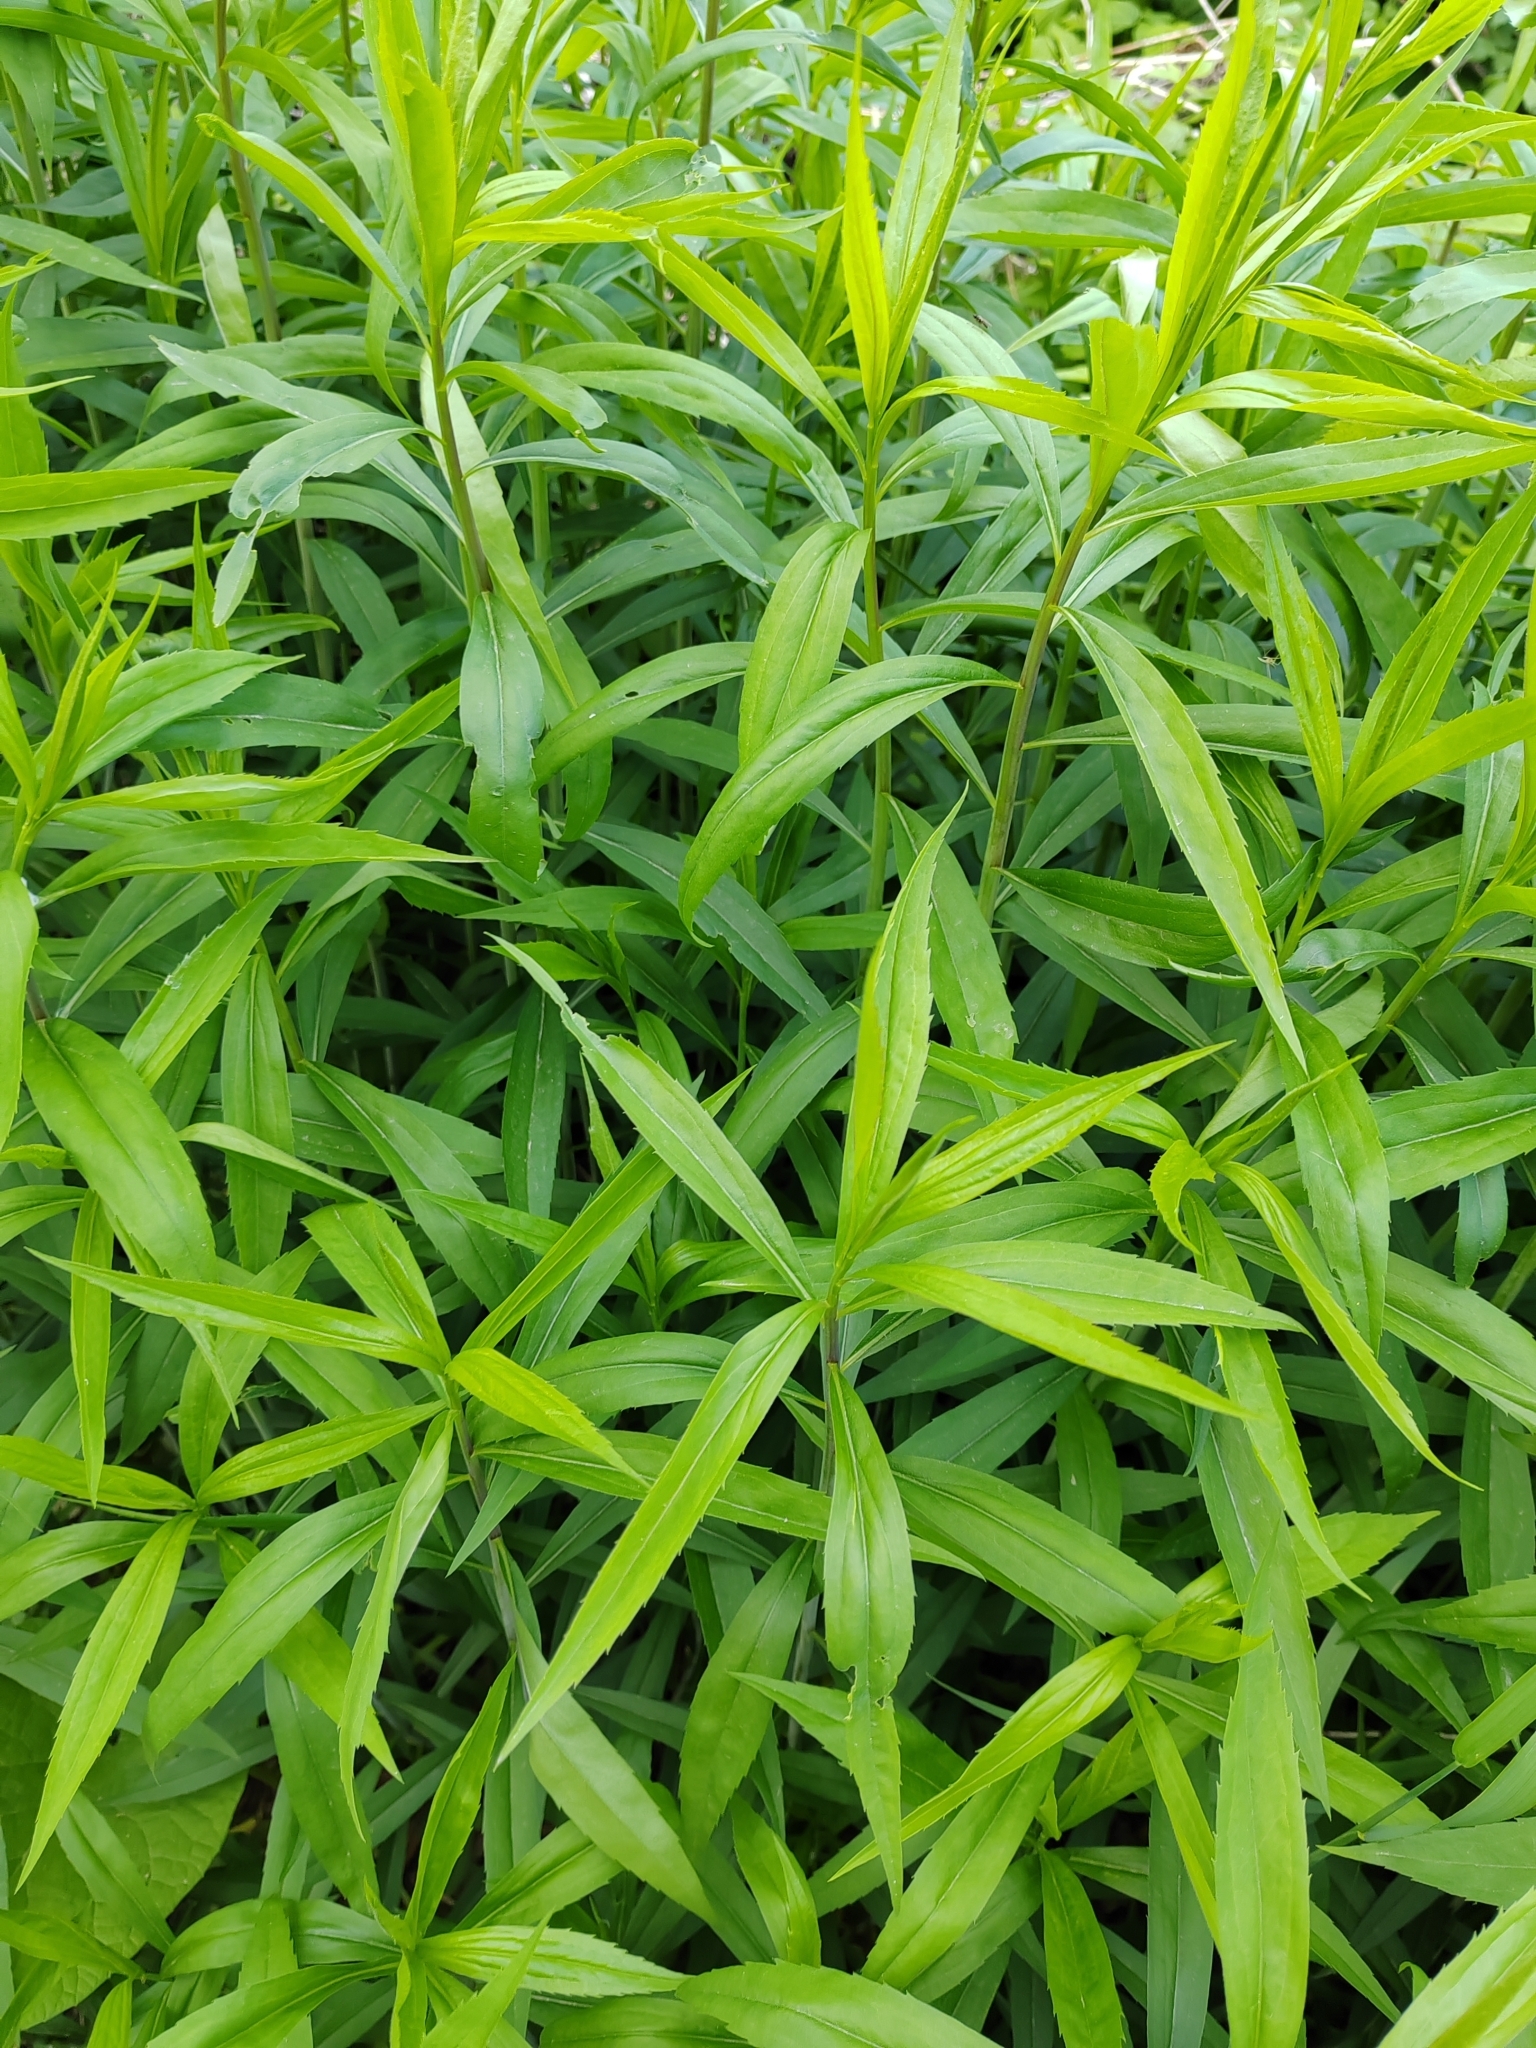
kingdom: Plantae
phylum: Tracheophyta
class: Magnoliopsida
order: Asterales
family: Asteraceae
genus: Solidago
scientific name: Solidago gigantea
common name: Giant goldenrod
